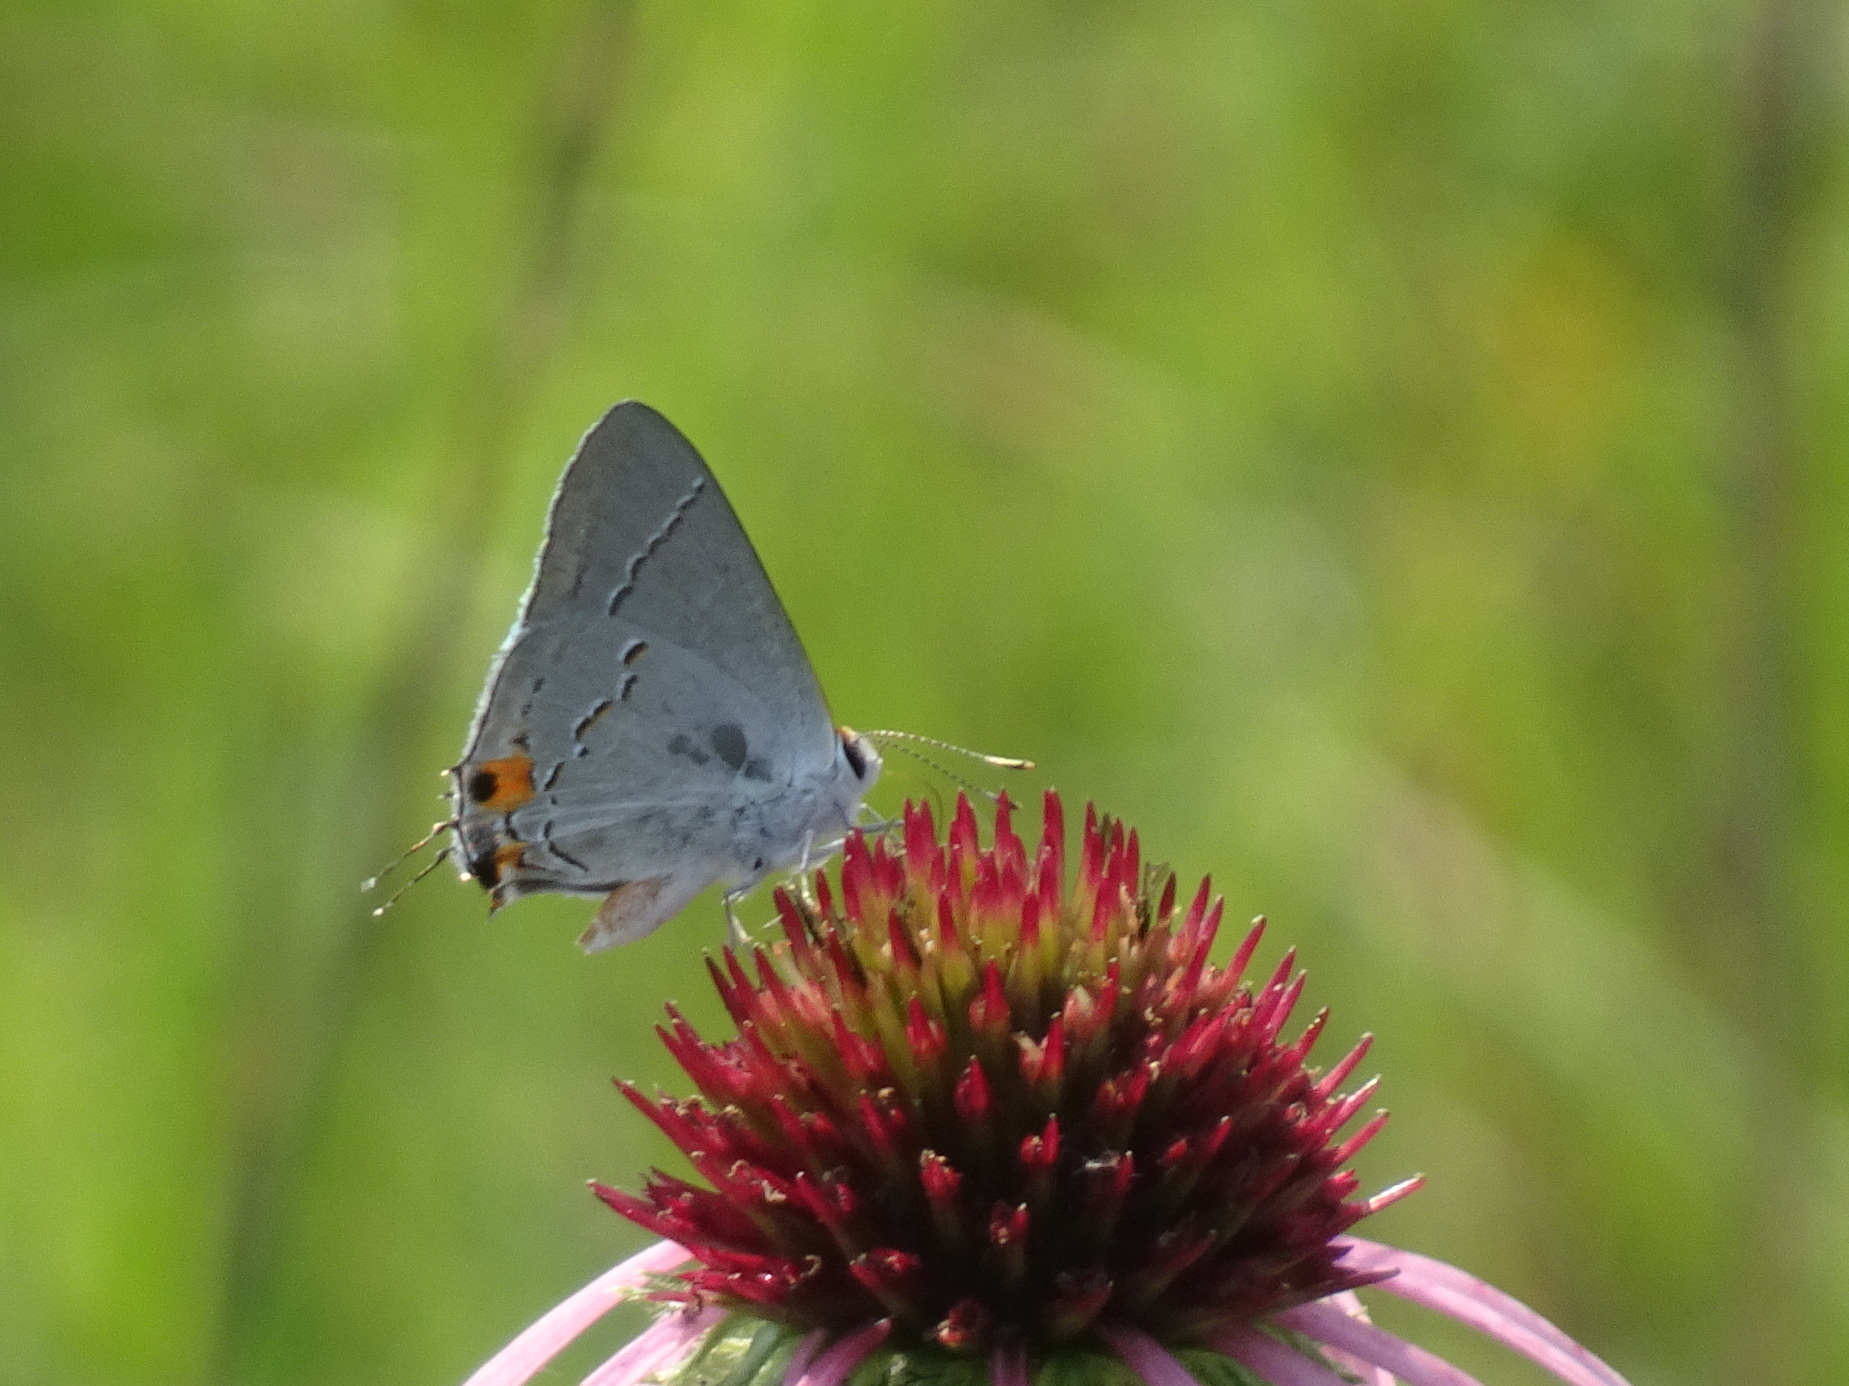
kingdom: Animalia
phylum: Arthropoda
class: Insecta
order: Lepidoptera
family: Lycaenidae
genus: Strymon
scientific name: Strymon melinus
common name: Gray hairstreak
